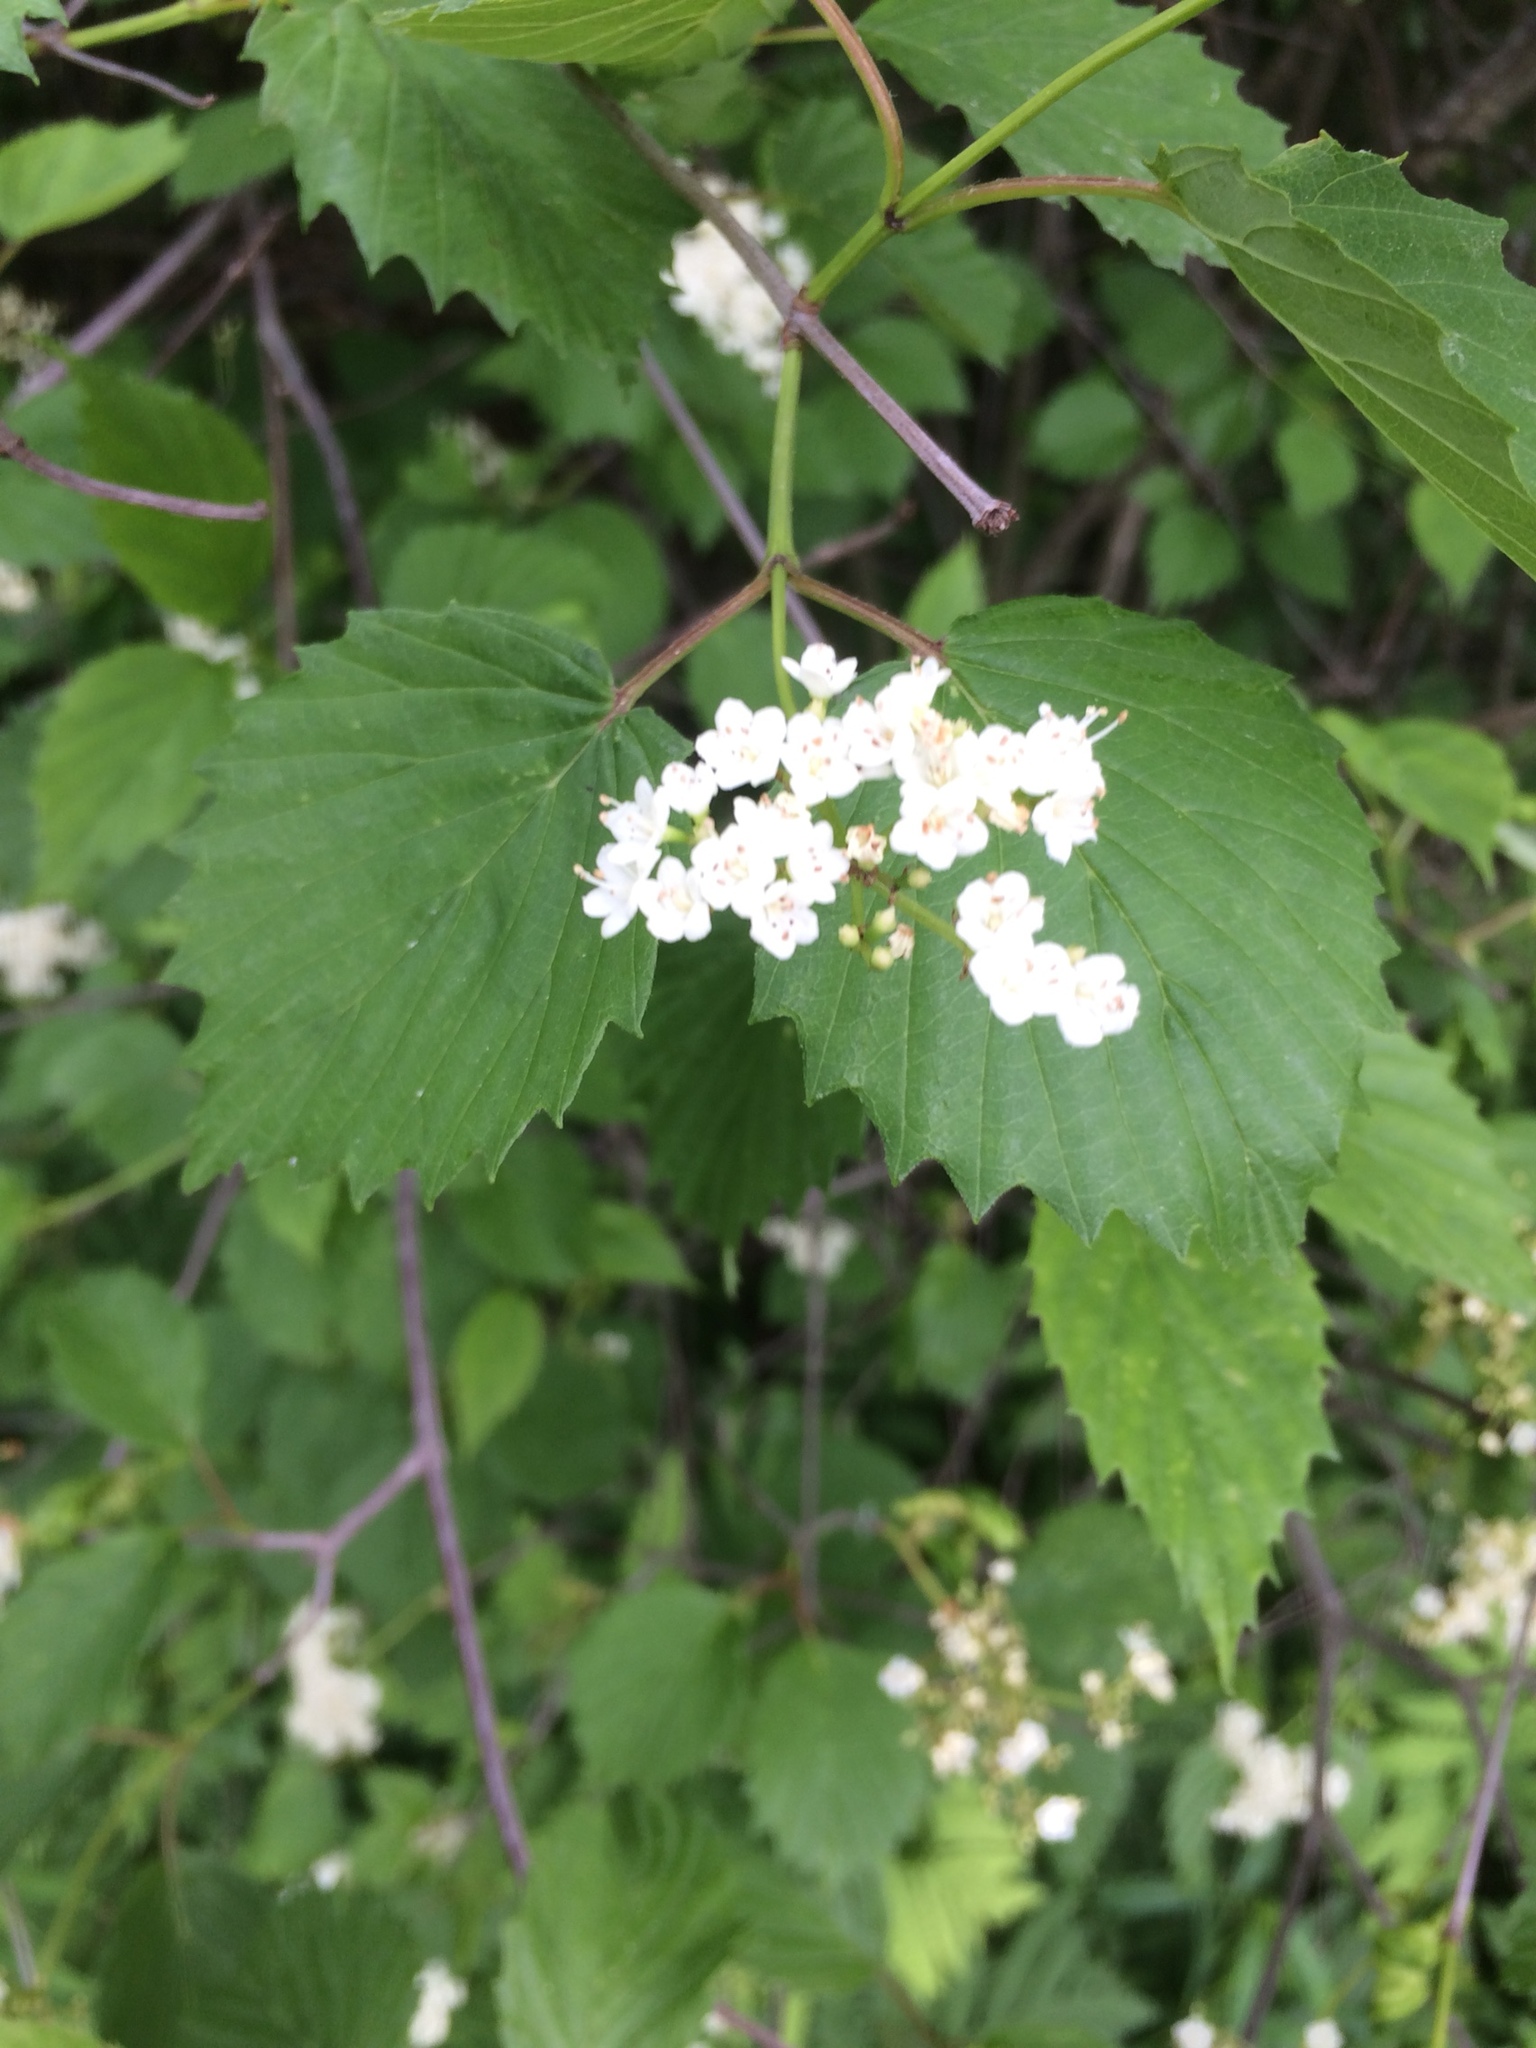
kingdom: Plantae
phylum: Tracheophyta
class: Magnoliopsida
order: Dipsacales
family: Viburnaceae
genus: Viburnum
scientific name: Viburnum dentatum
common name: Arrow-wood
